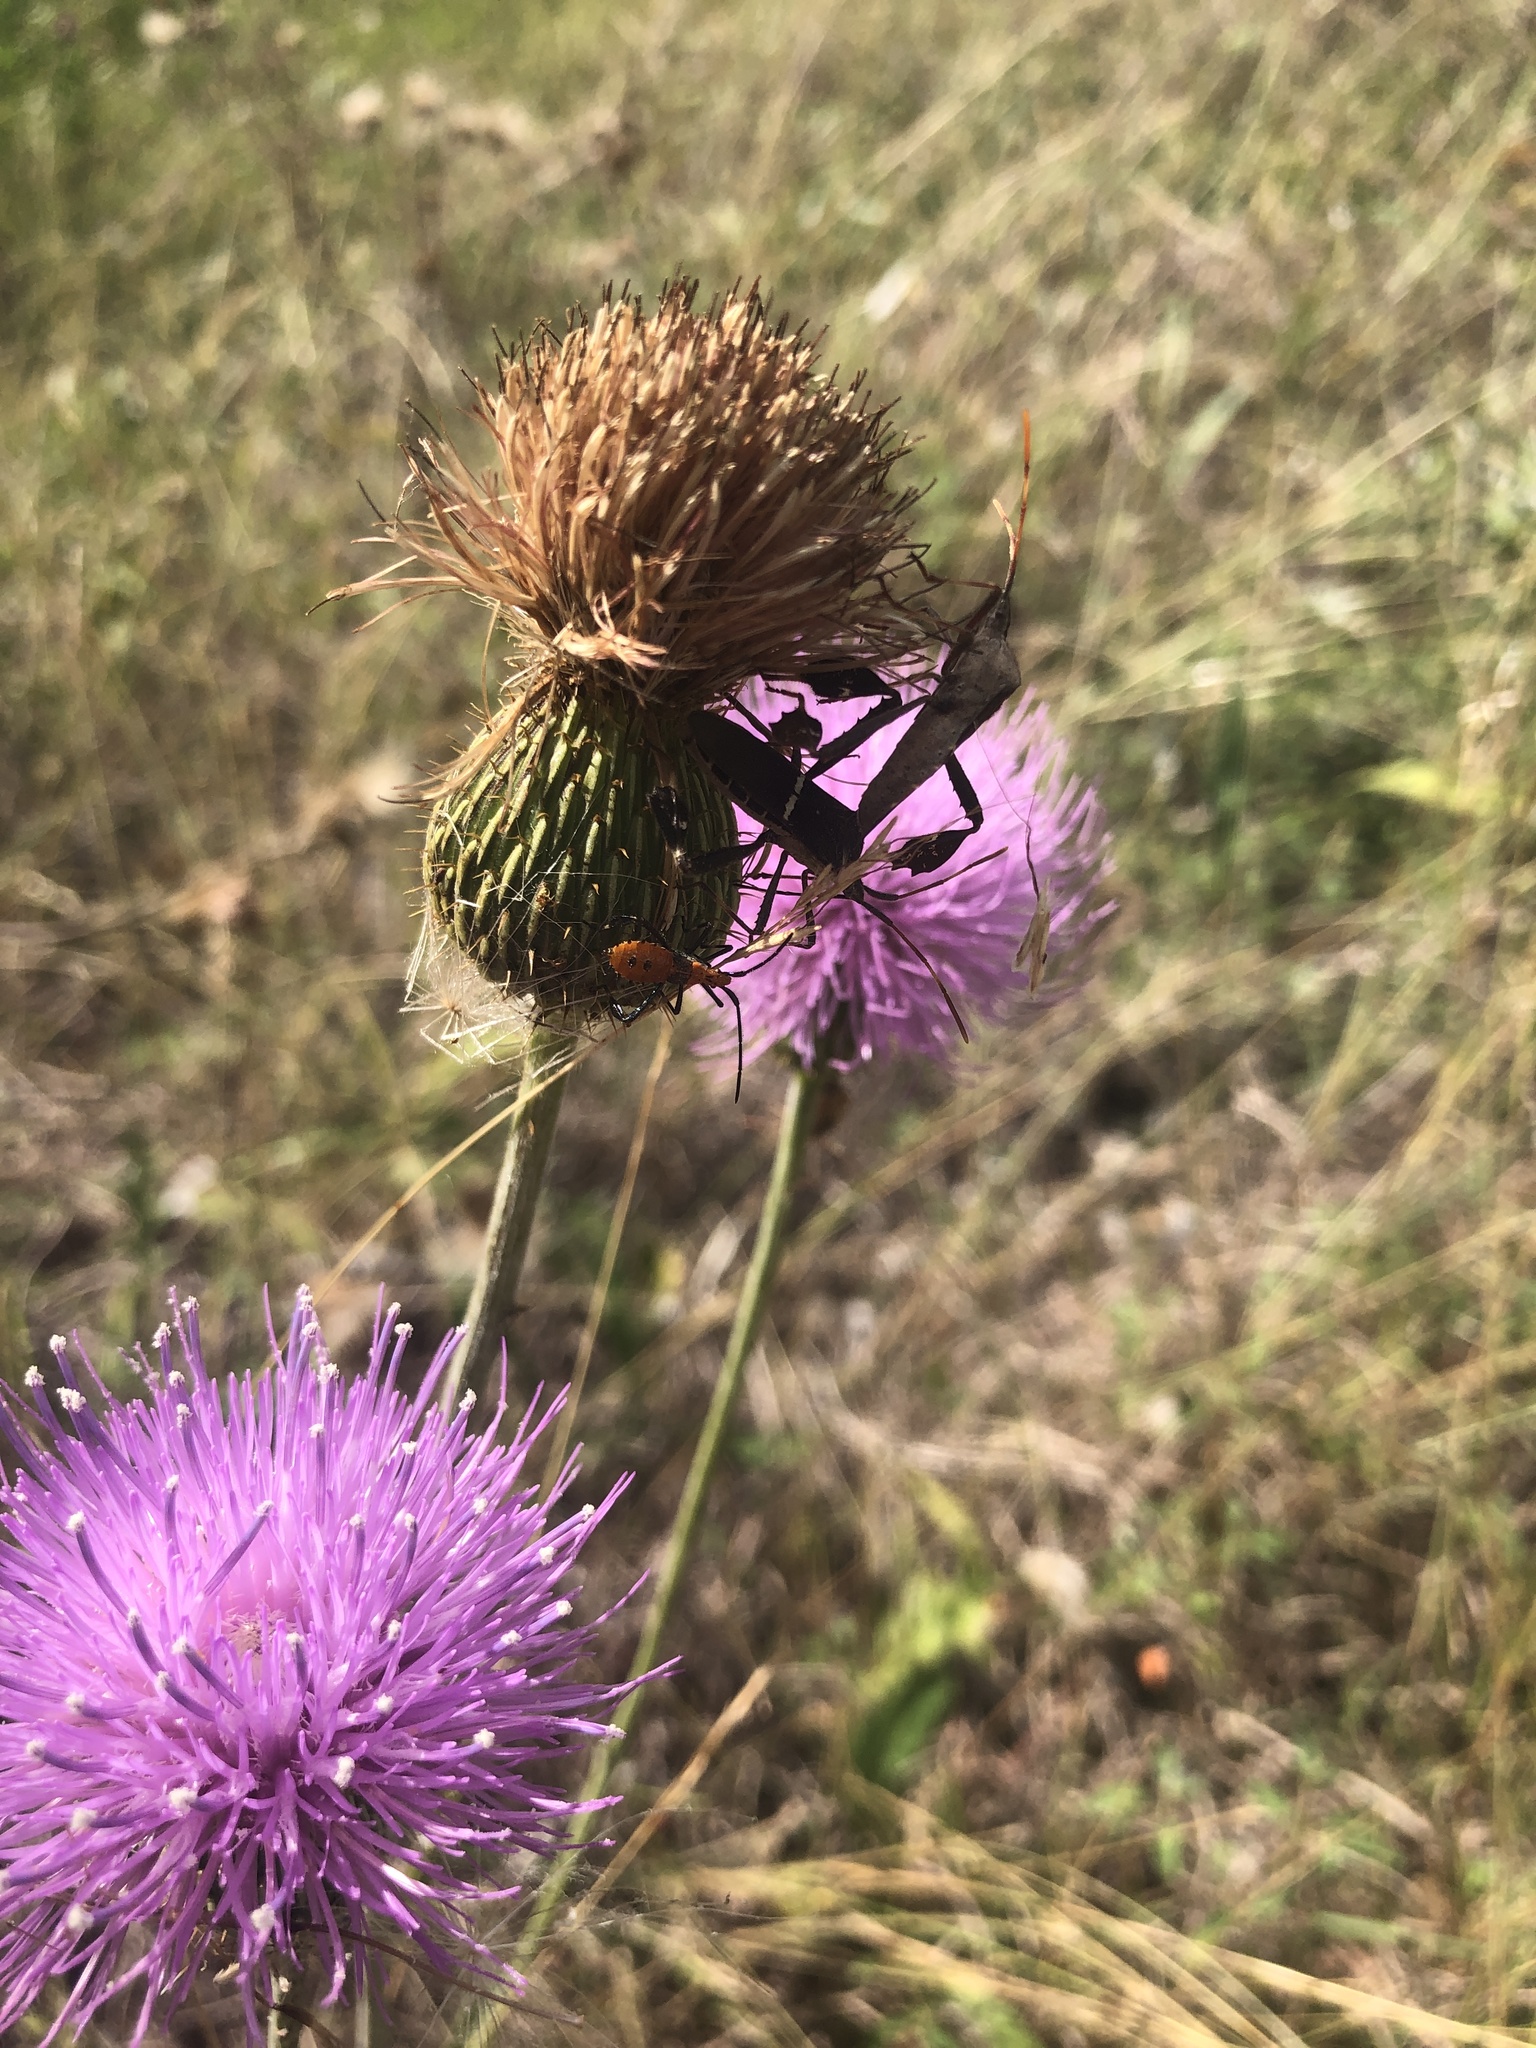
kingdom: Plantae
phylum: Tracheophyta
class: Magnoliopsida
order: Asterales
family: Asteraceae
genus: Cirsium
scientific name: Cirsium texanum
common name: Texas purple thistle
